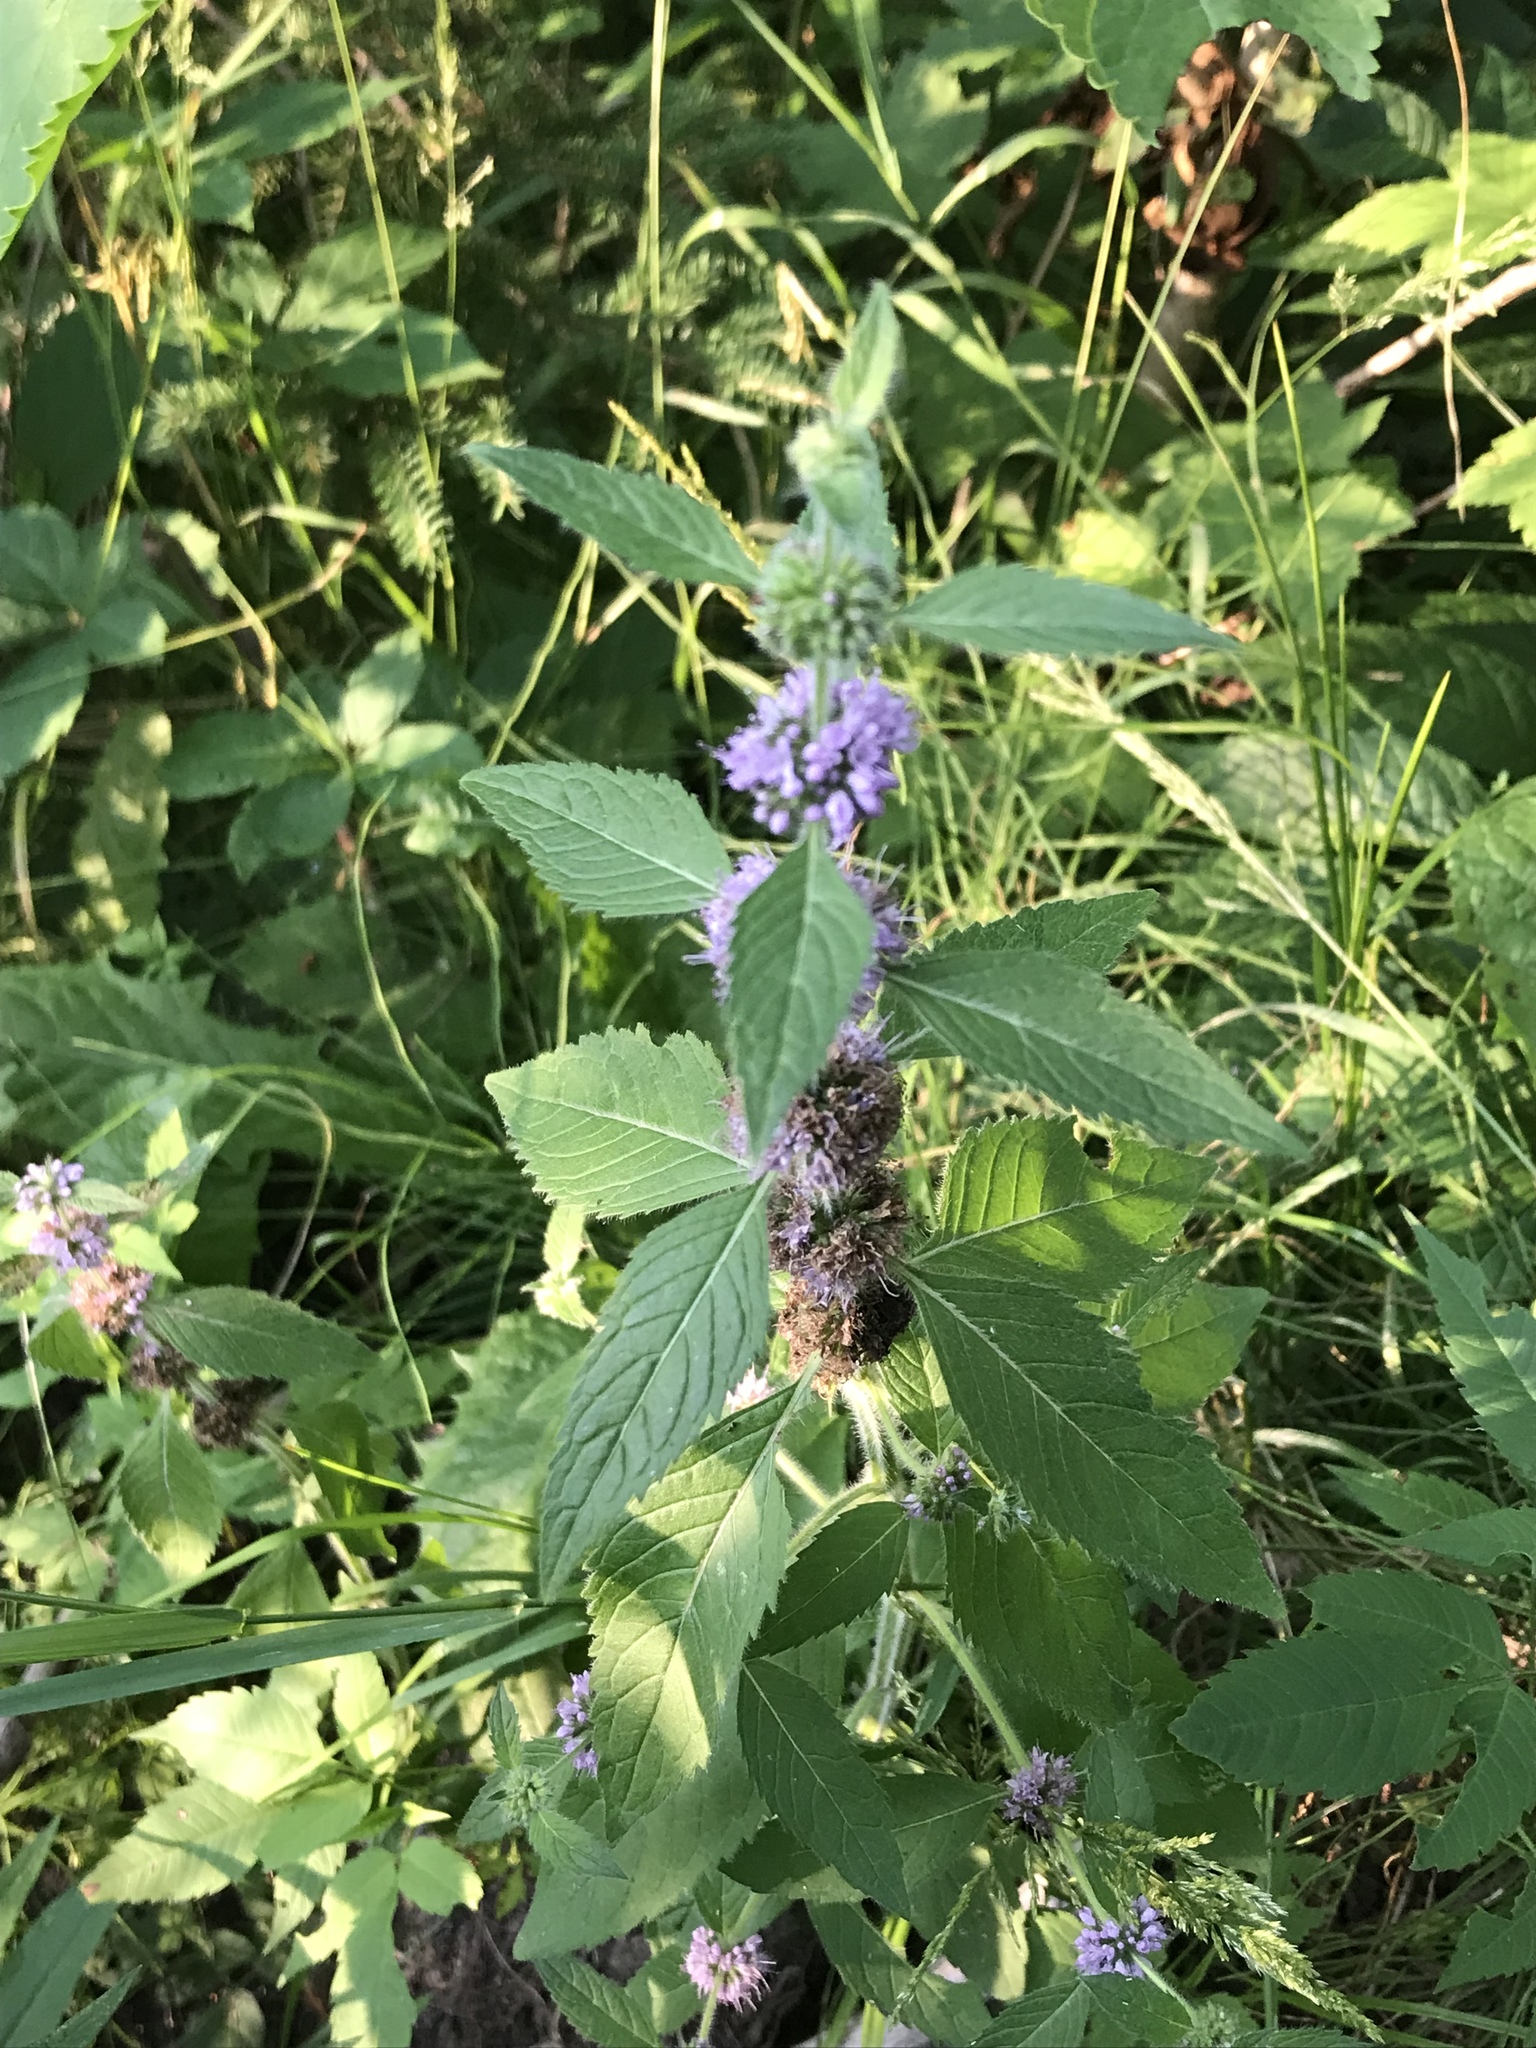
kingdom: Plantae
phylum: Tracheophyta
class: Magnoliopsida
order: Lamiales
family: Lamiaceae
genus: Mentha
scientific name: Mentha canadensis
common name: American corn mint
